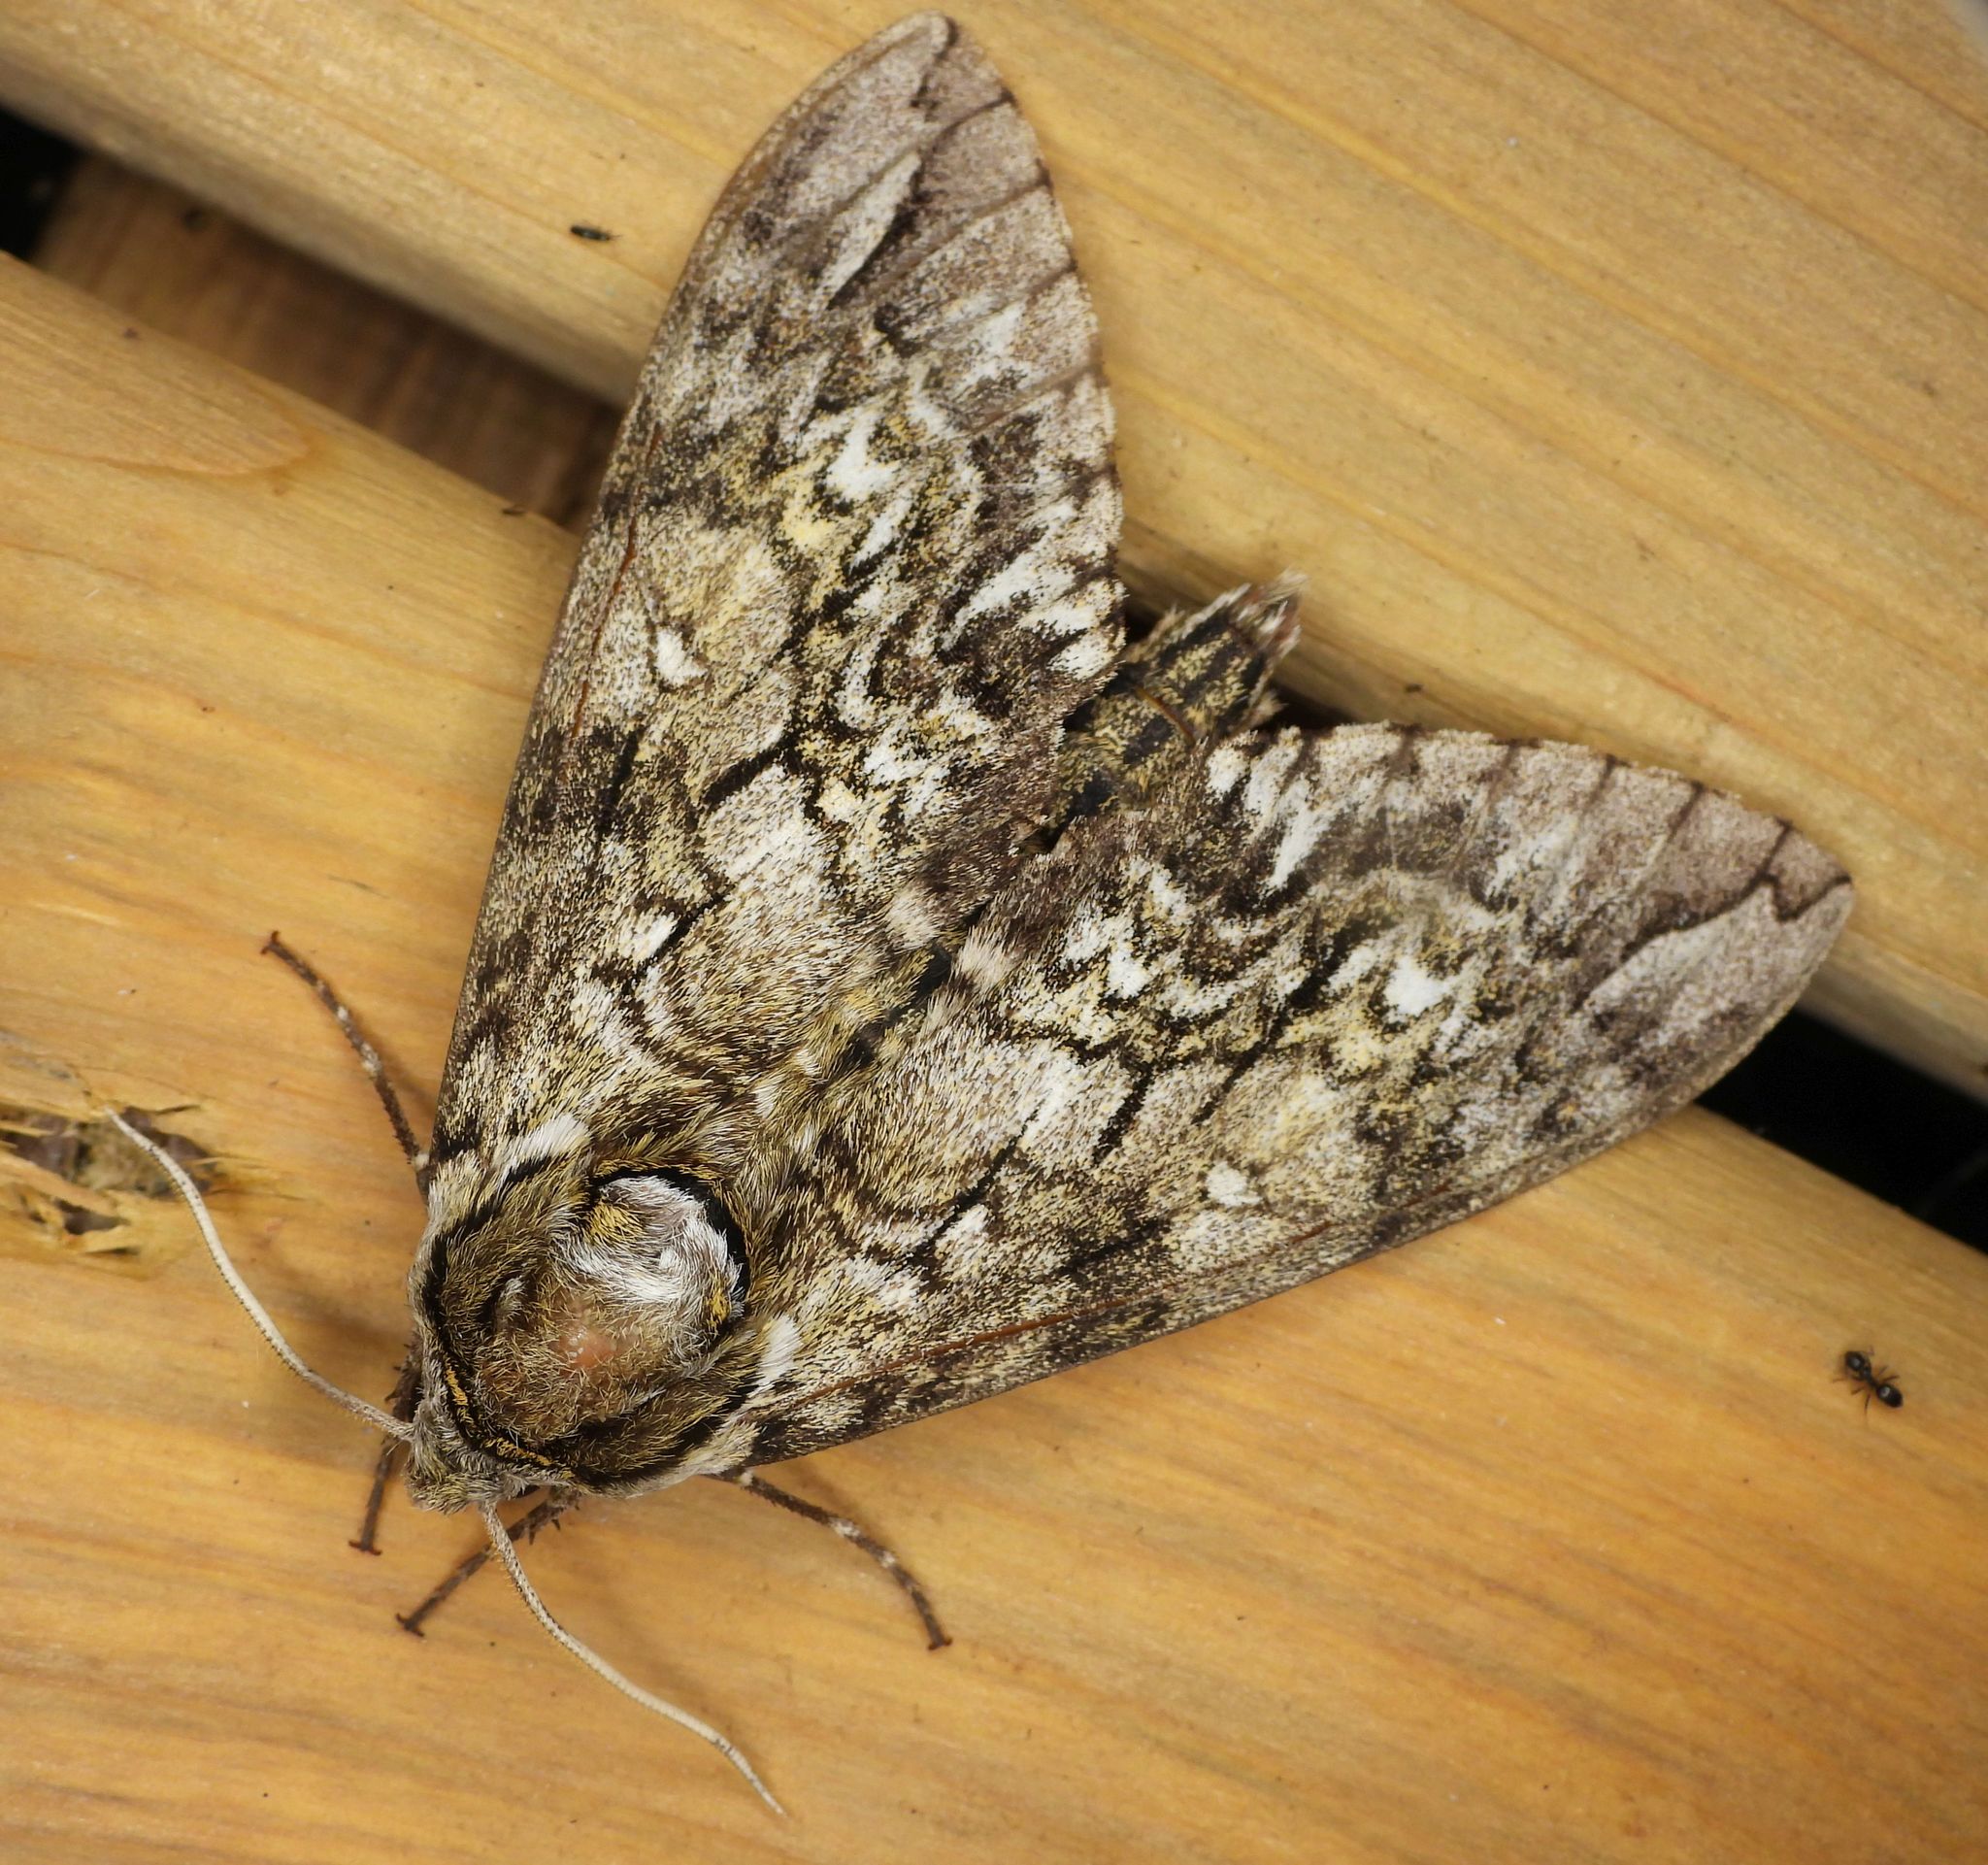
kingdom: Animalia
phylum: Arthropoda
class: Insecta
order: Lepidoptera
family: Sphingidae
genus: Ceratomia
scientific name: Ceratomia undulosa
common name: Waved sphinx
